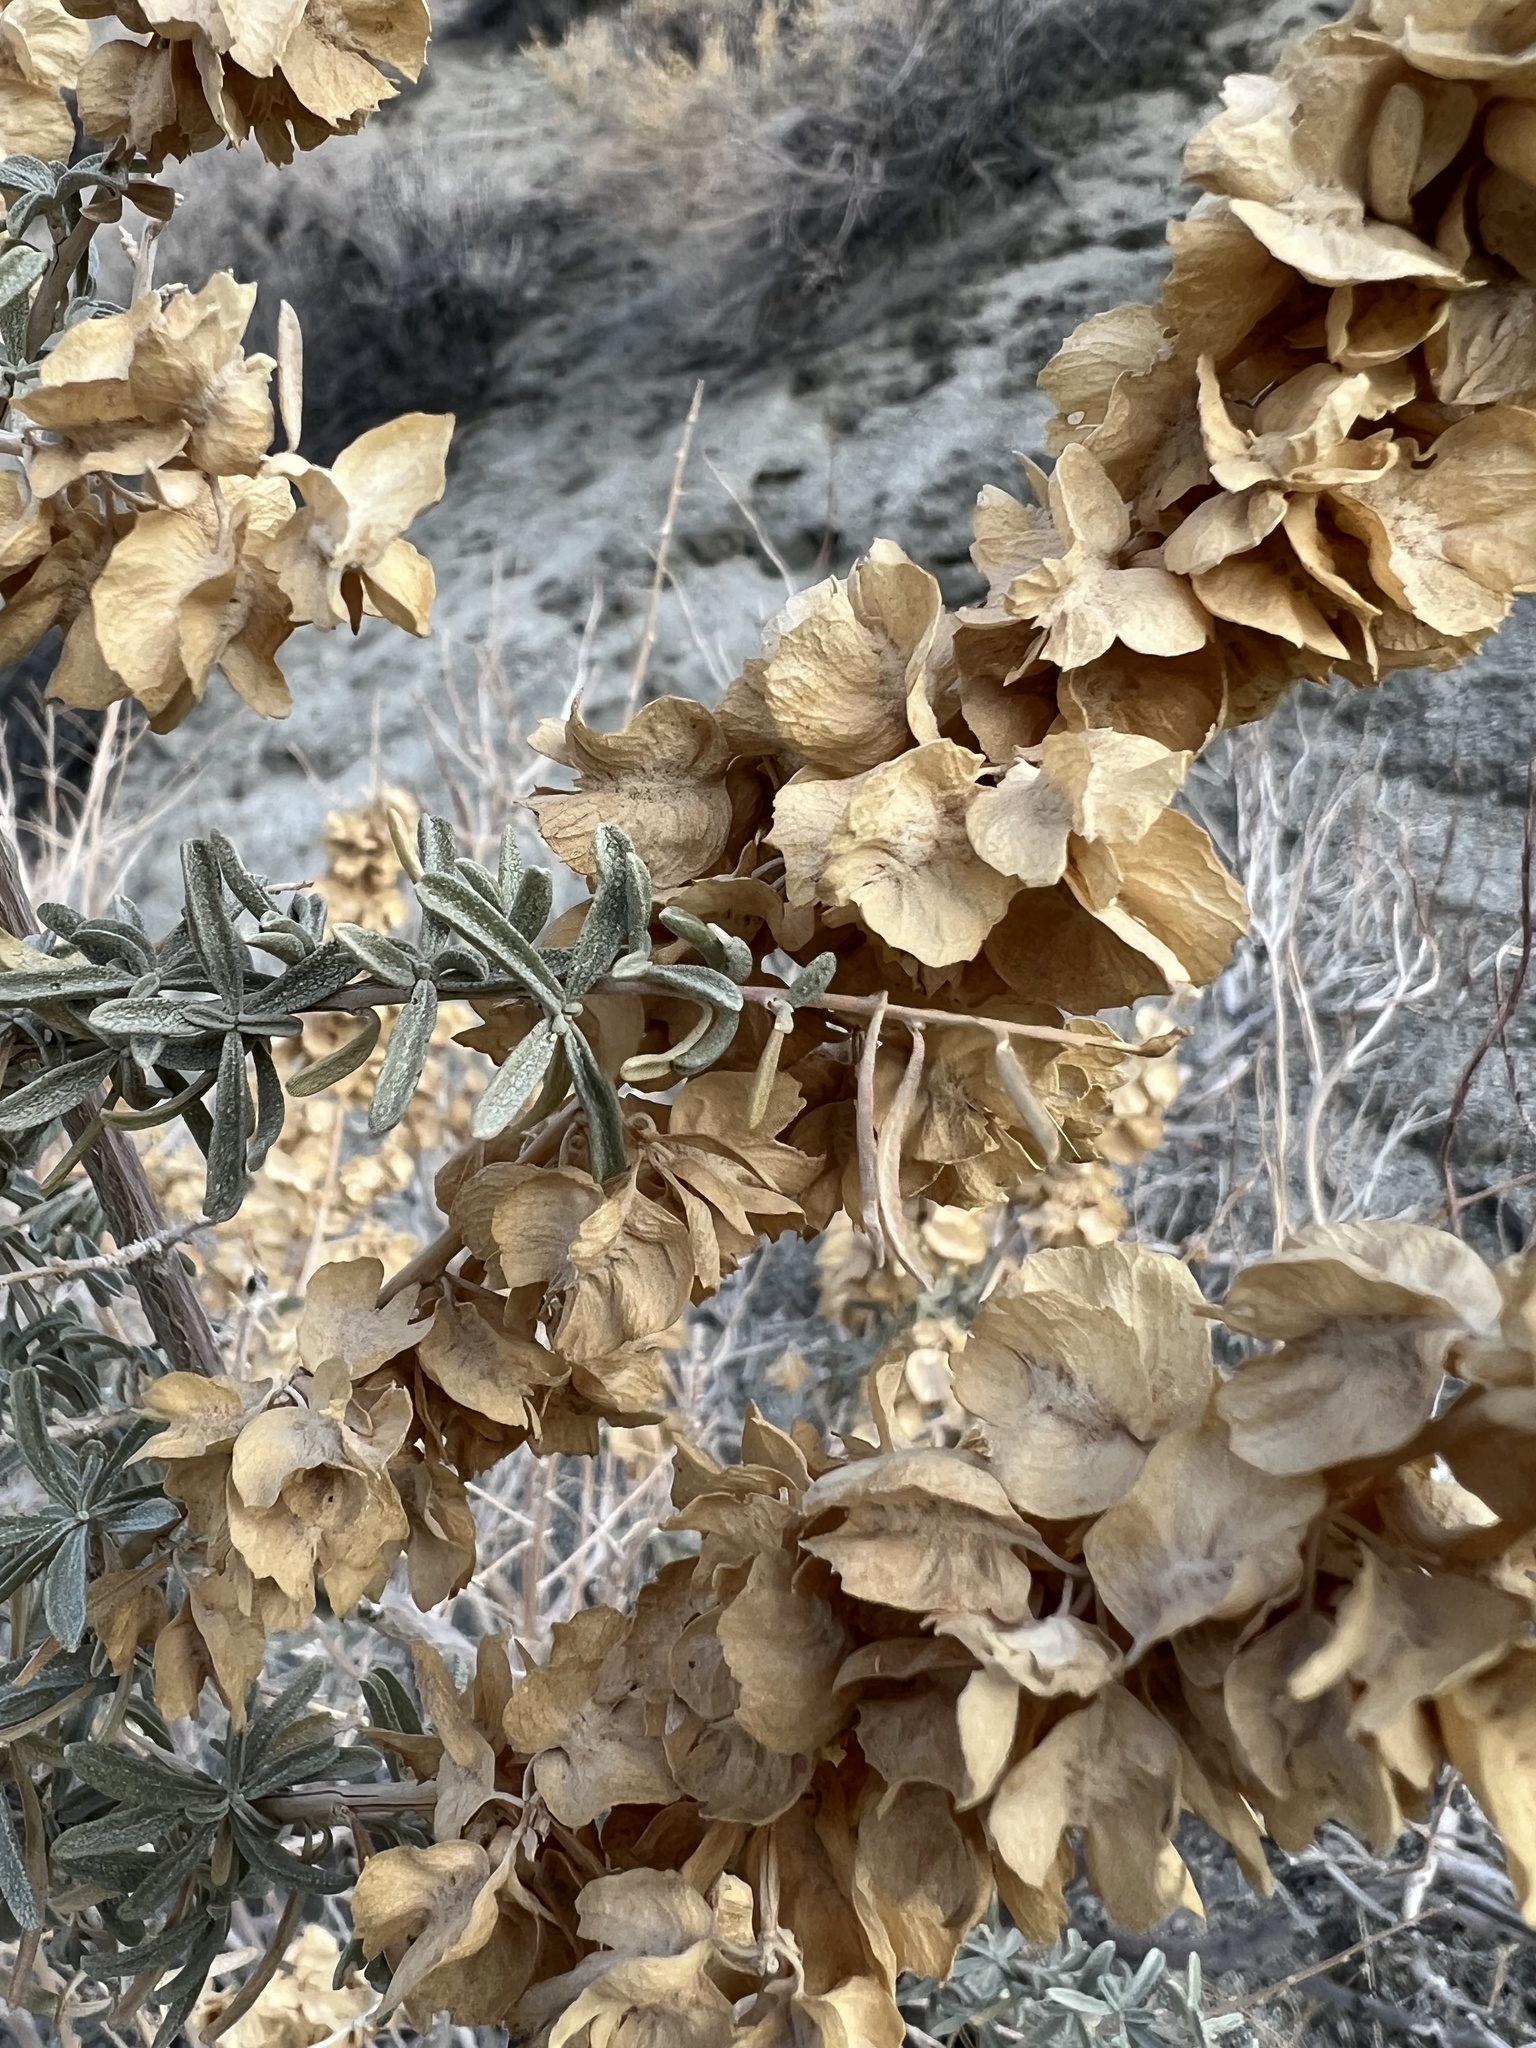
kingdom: Plantae
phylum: Tracheophyta
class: Magnoliopsida
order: Caryophyllales
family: Amaranthaceae
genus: Atriplex
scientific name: Atriplex canescens
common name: Four-wing saltbush
